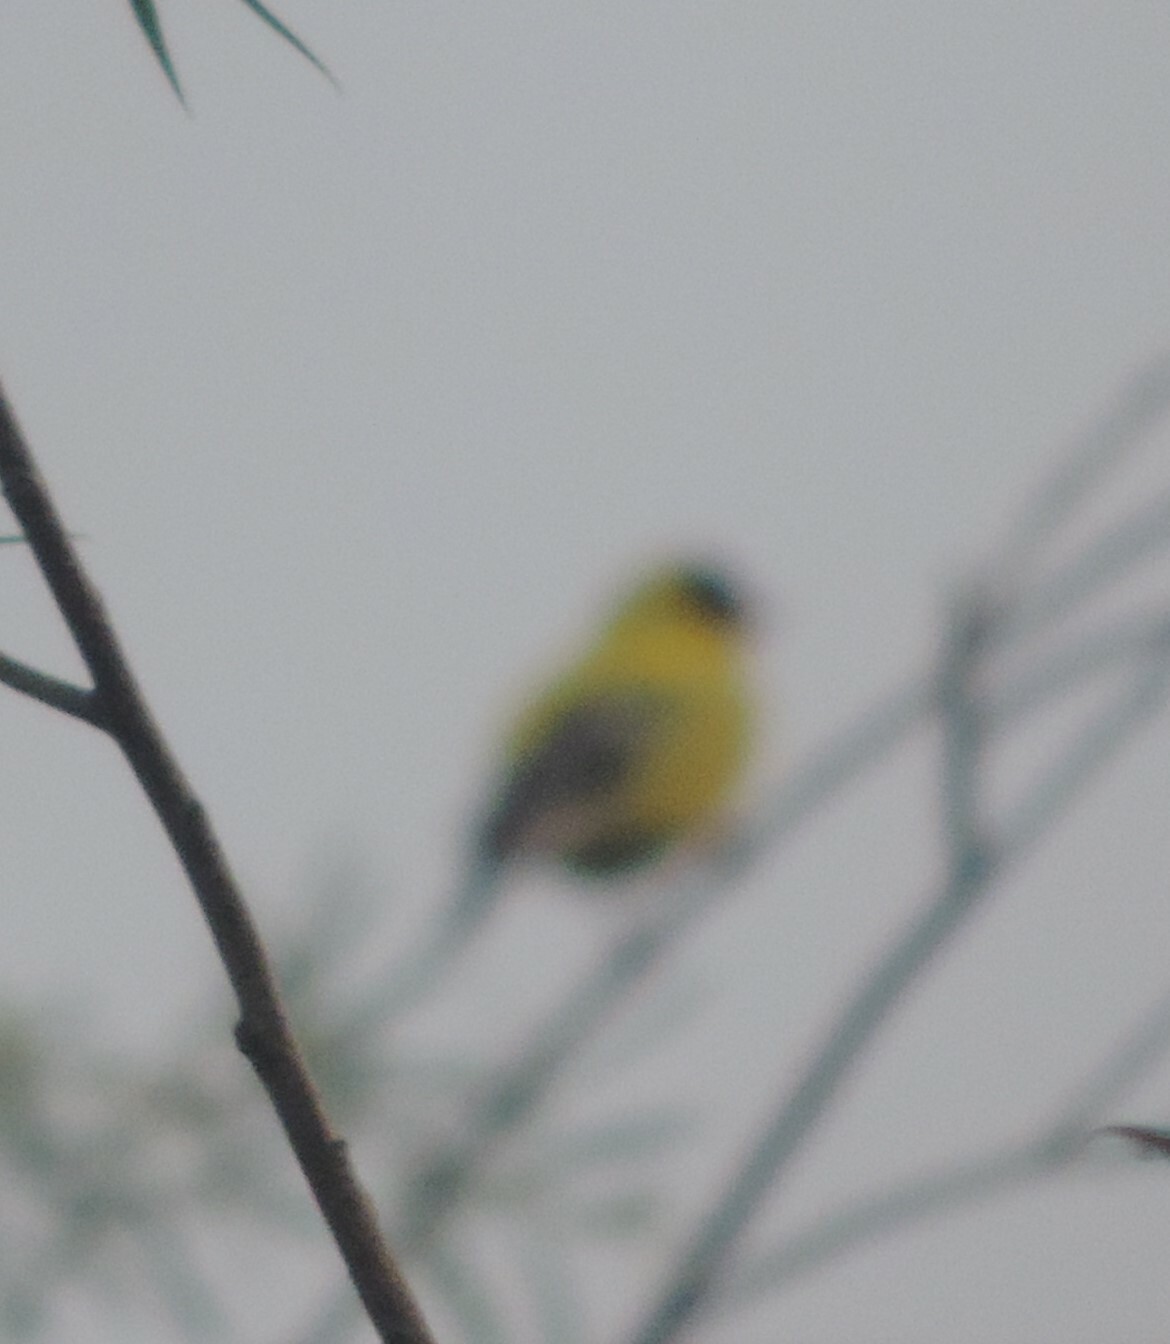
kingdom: Animalia
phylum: Chordata
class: Aves
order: Passeriformes
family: Fringillidae
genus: Spinus
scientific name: Spinus tristis
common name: American goldfinch
